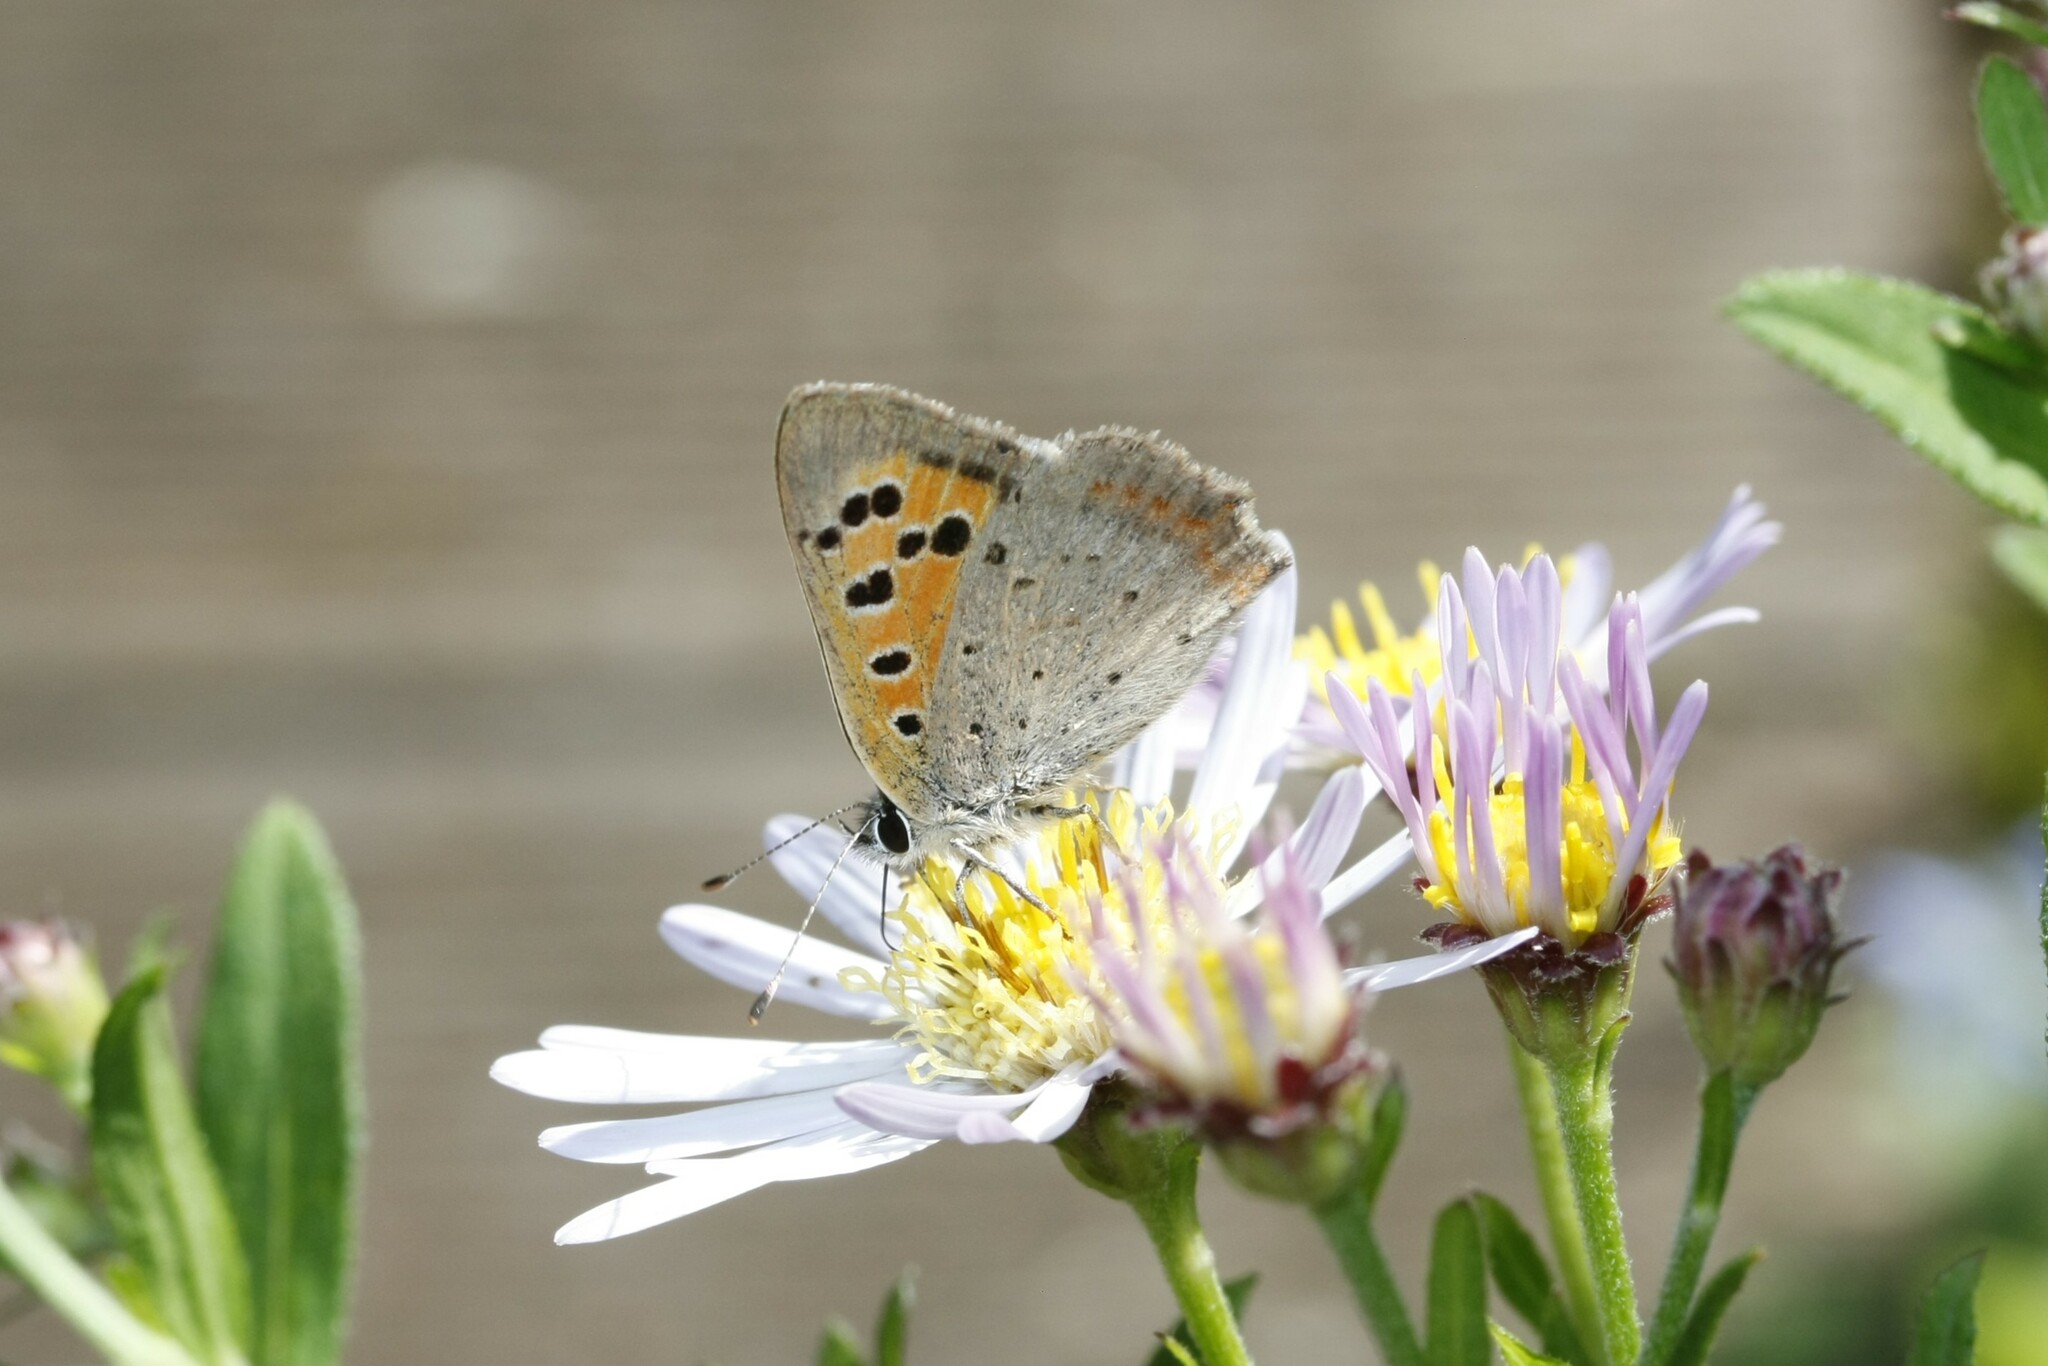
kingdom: Animalia
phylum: Arthropoda
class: Insecta
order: Lepidoptera
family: Lycaenidae
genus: Lycaena
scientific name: Lycaena phlaeas
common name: Small copper
